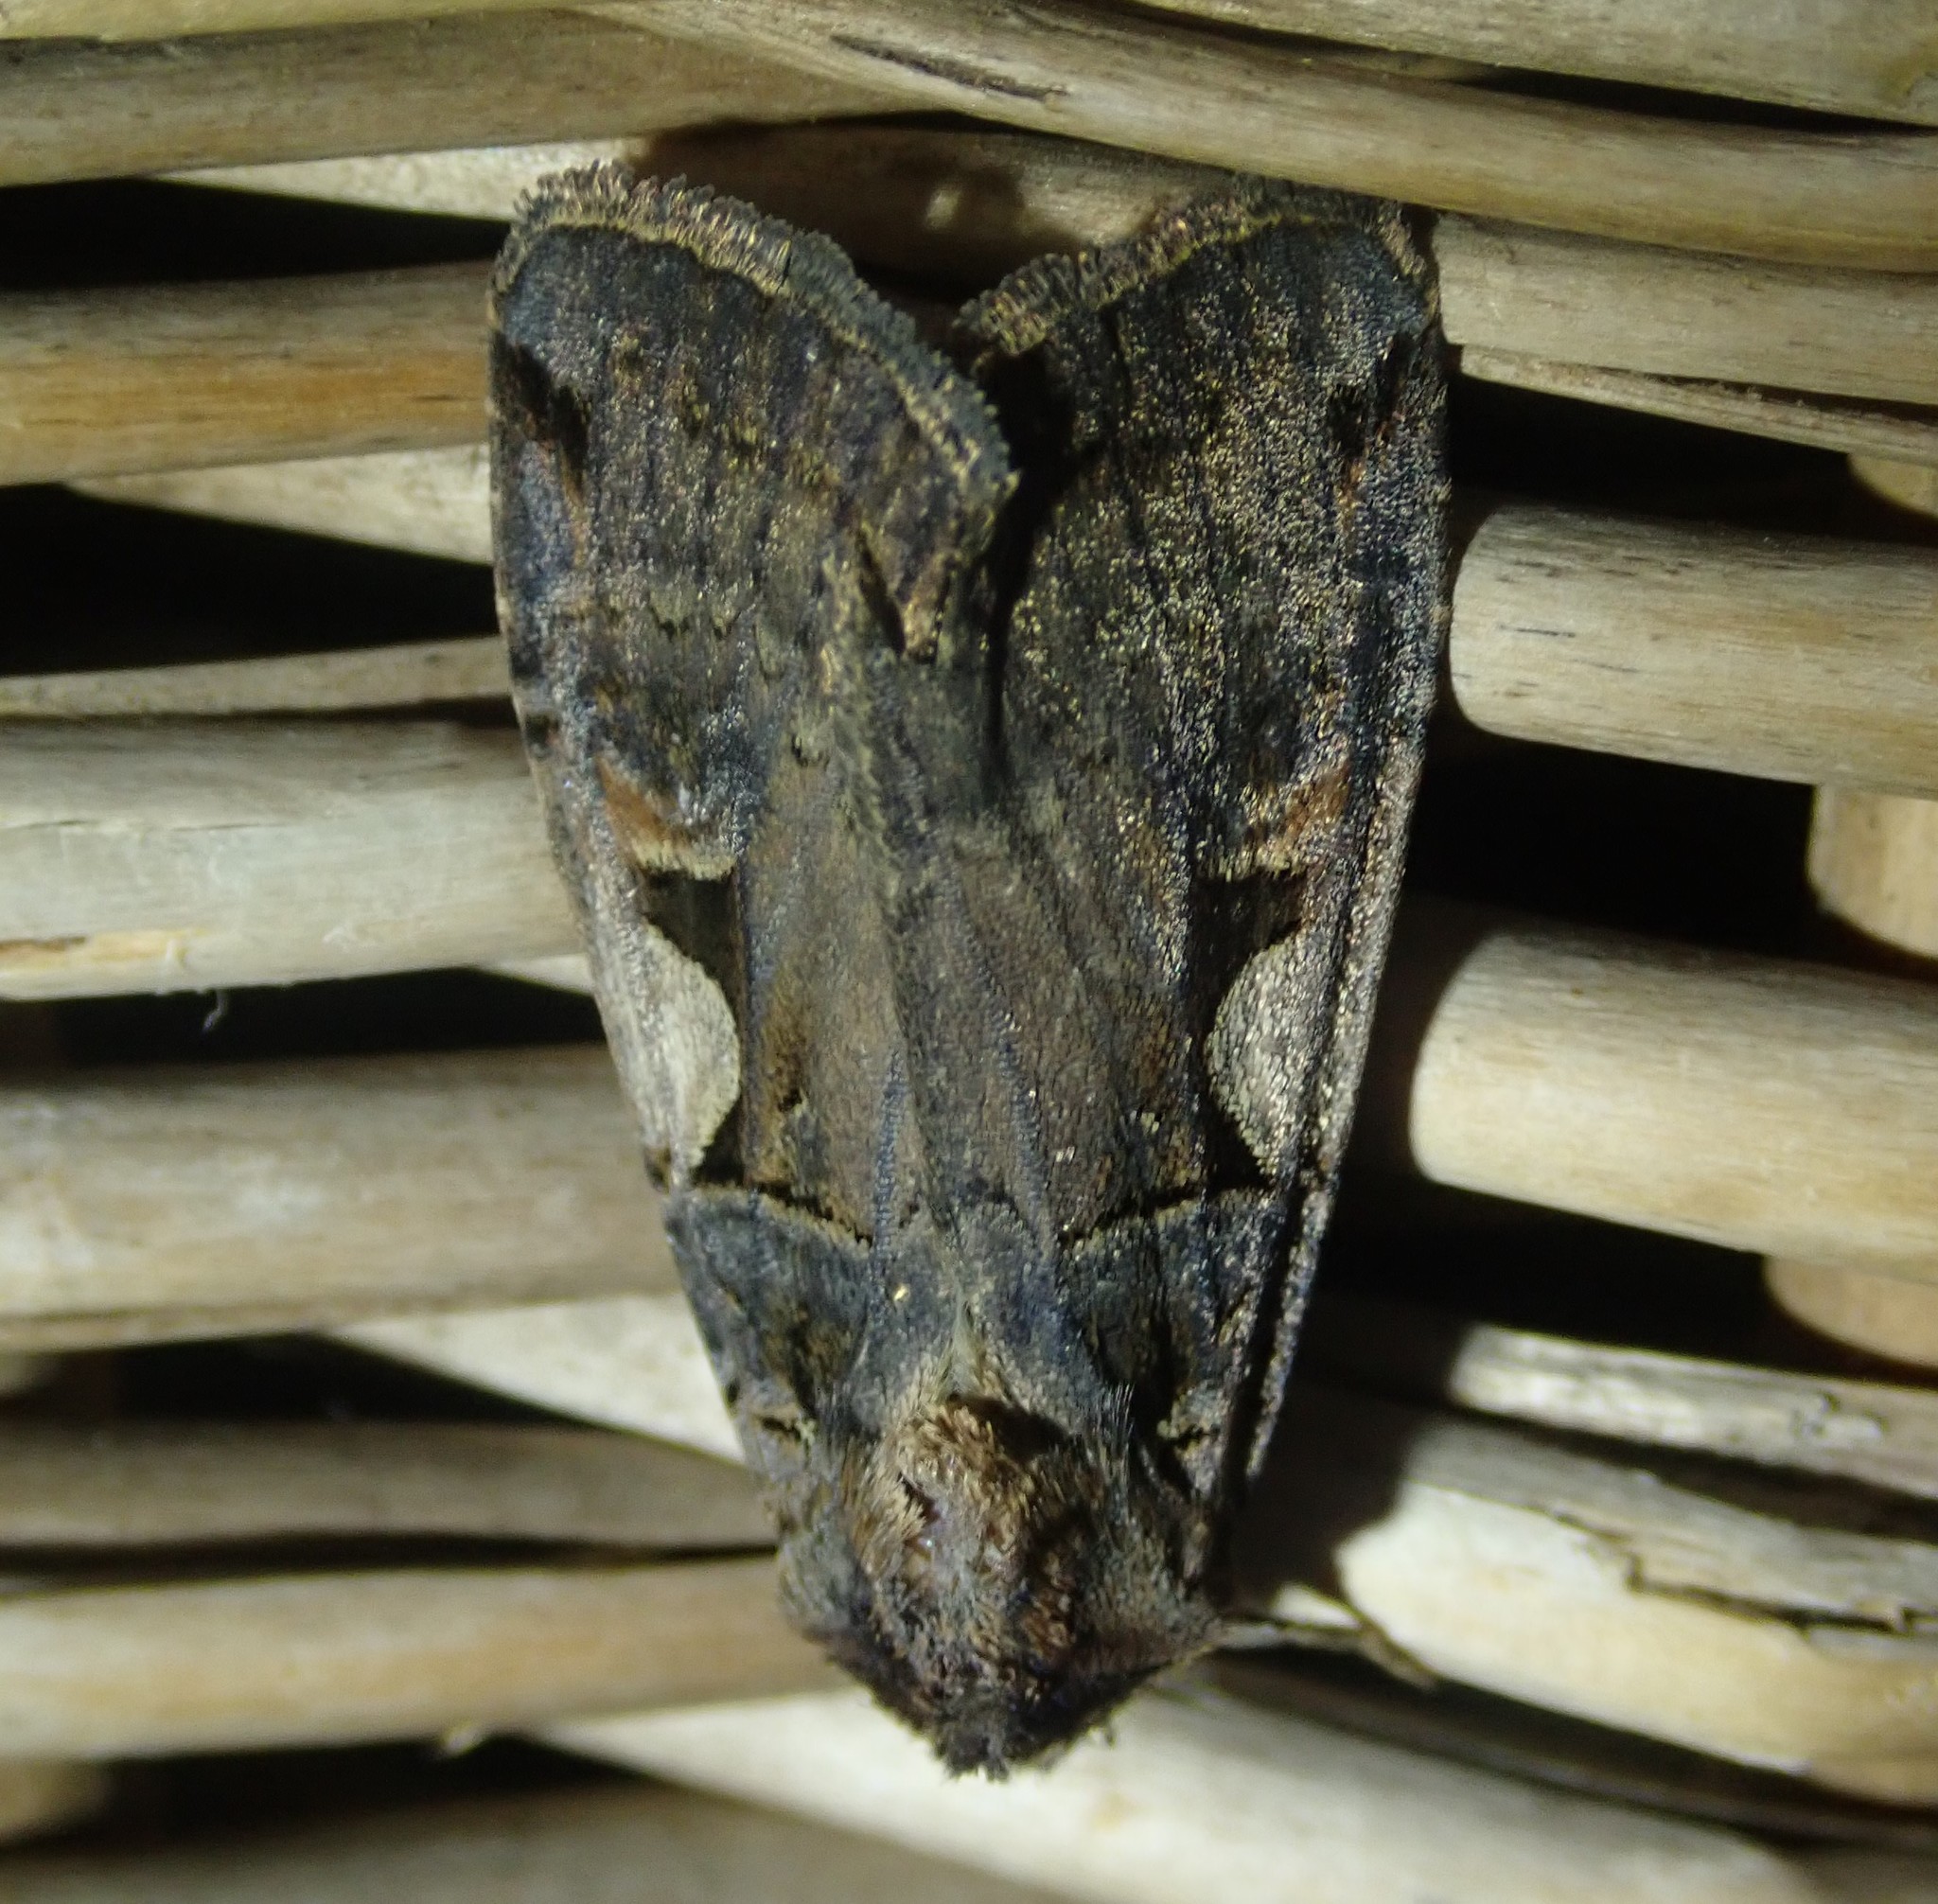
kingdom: Animalia
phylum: Arthropoda
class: Insecta
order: Lepidoptera
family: Noctuidae
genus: Xestia
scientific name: Xestia c-nigrum
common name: Setaceous hebrew character
